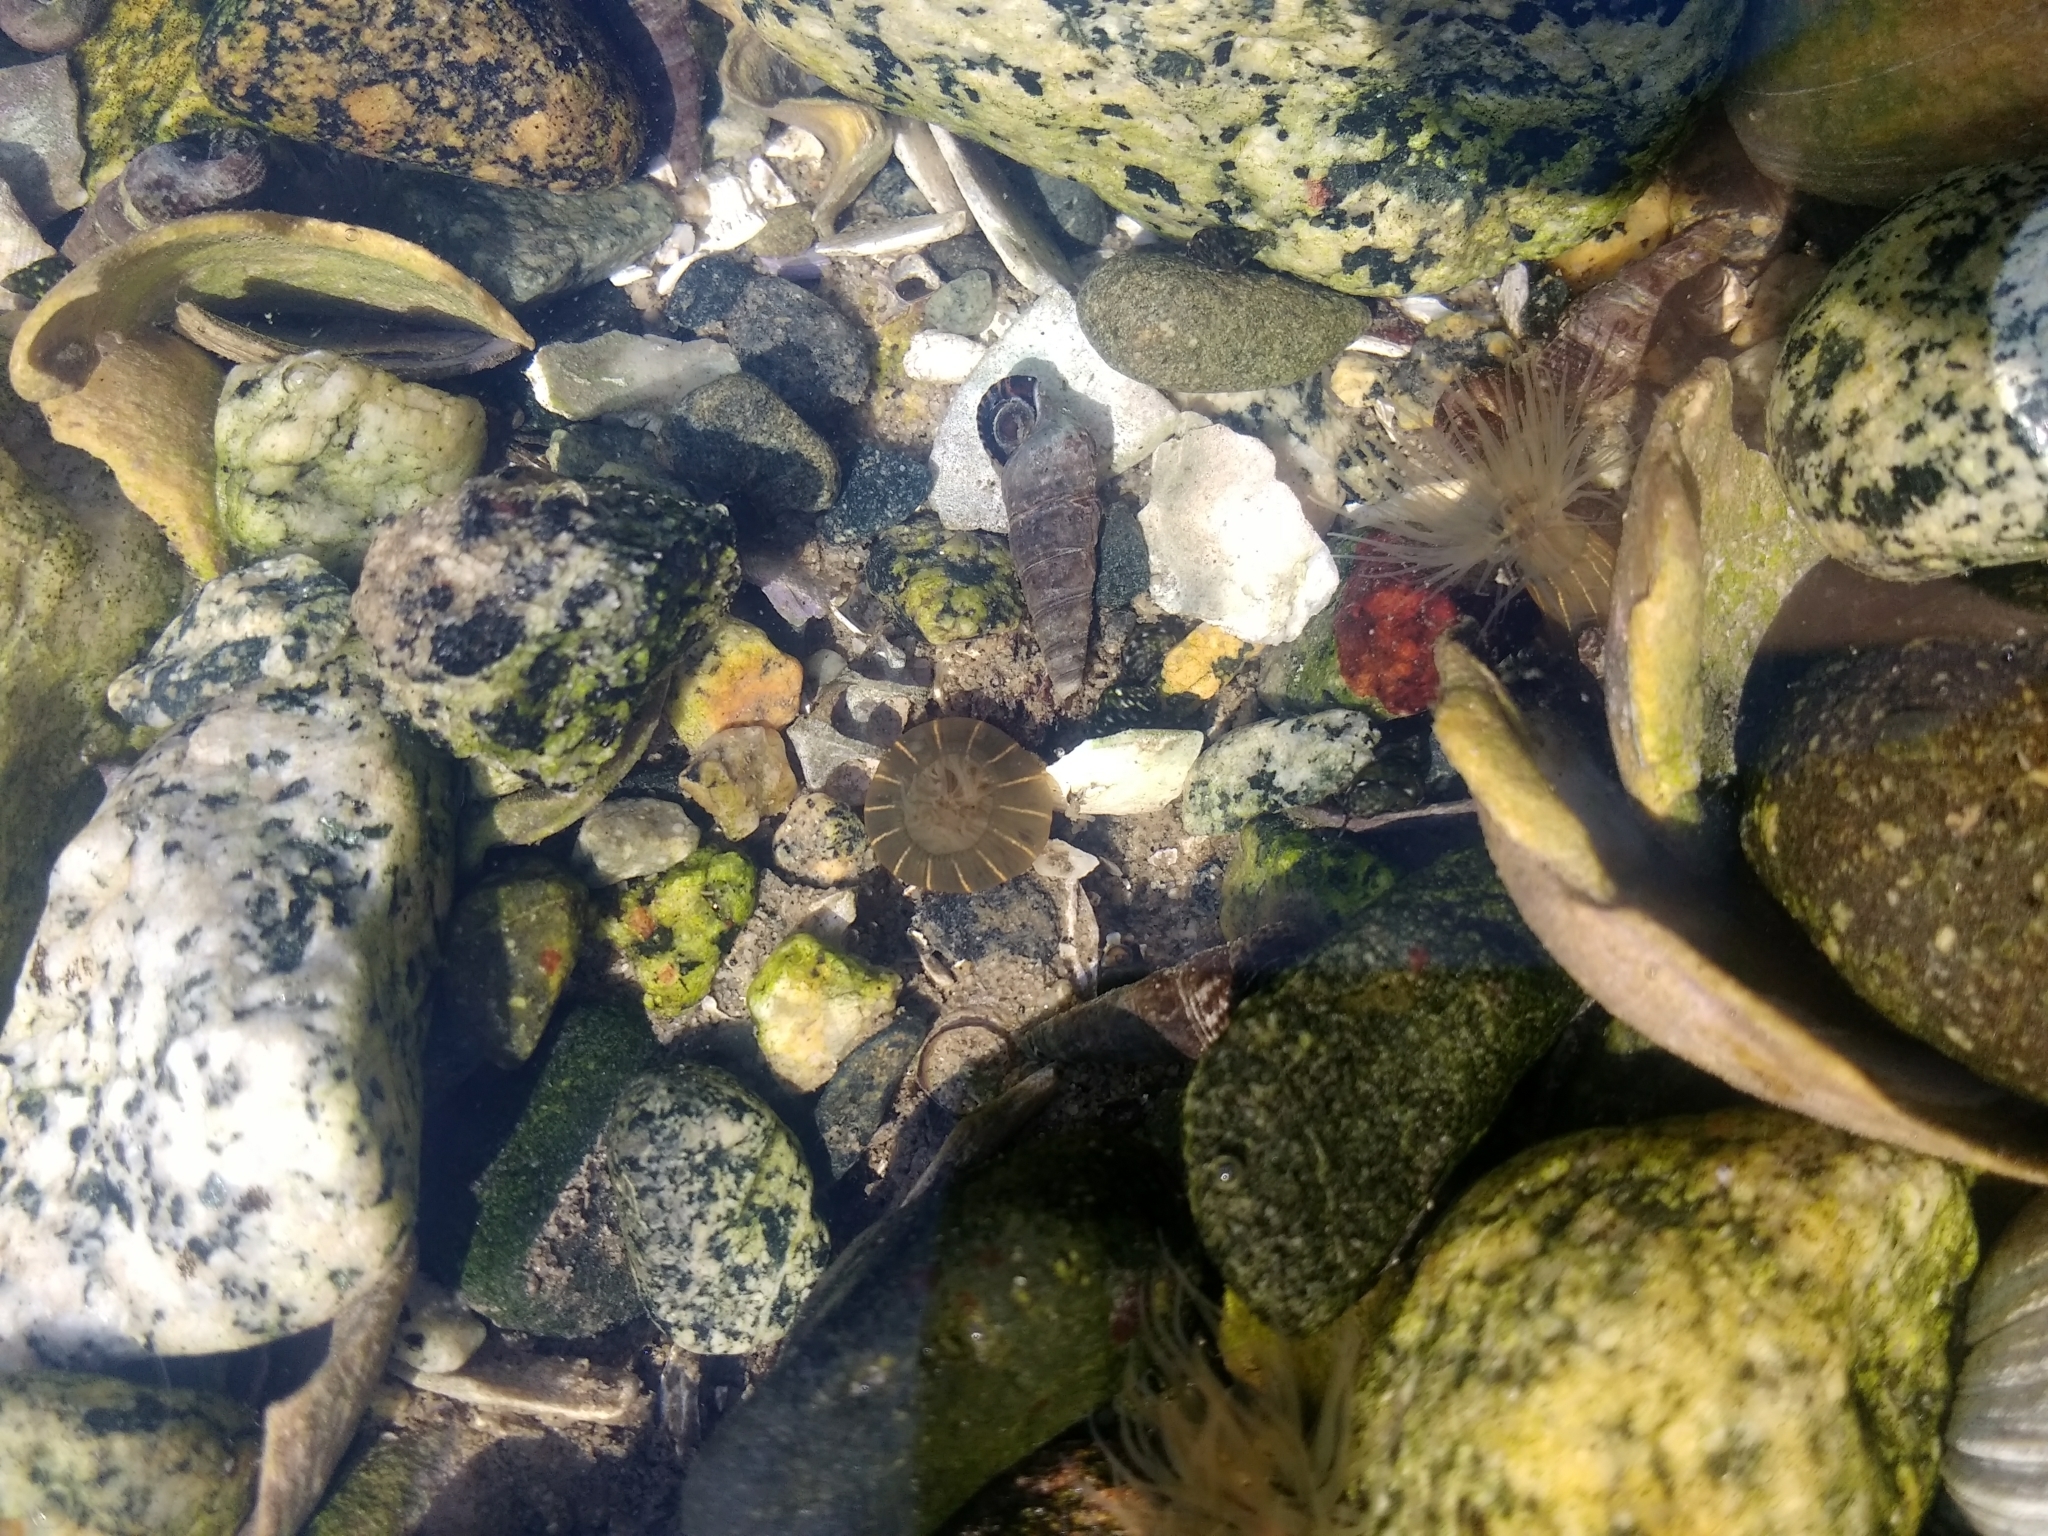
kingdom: Animalia
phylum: Cnidaria
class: Anthozoa
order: Actiniaria
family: Diadumenidae
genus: Diadumene
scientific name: Diadumene lineata
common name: Orange-striped anemone
